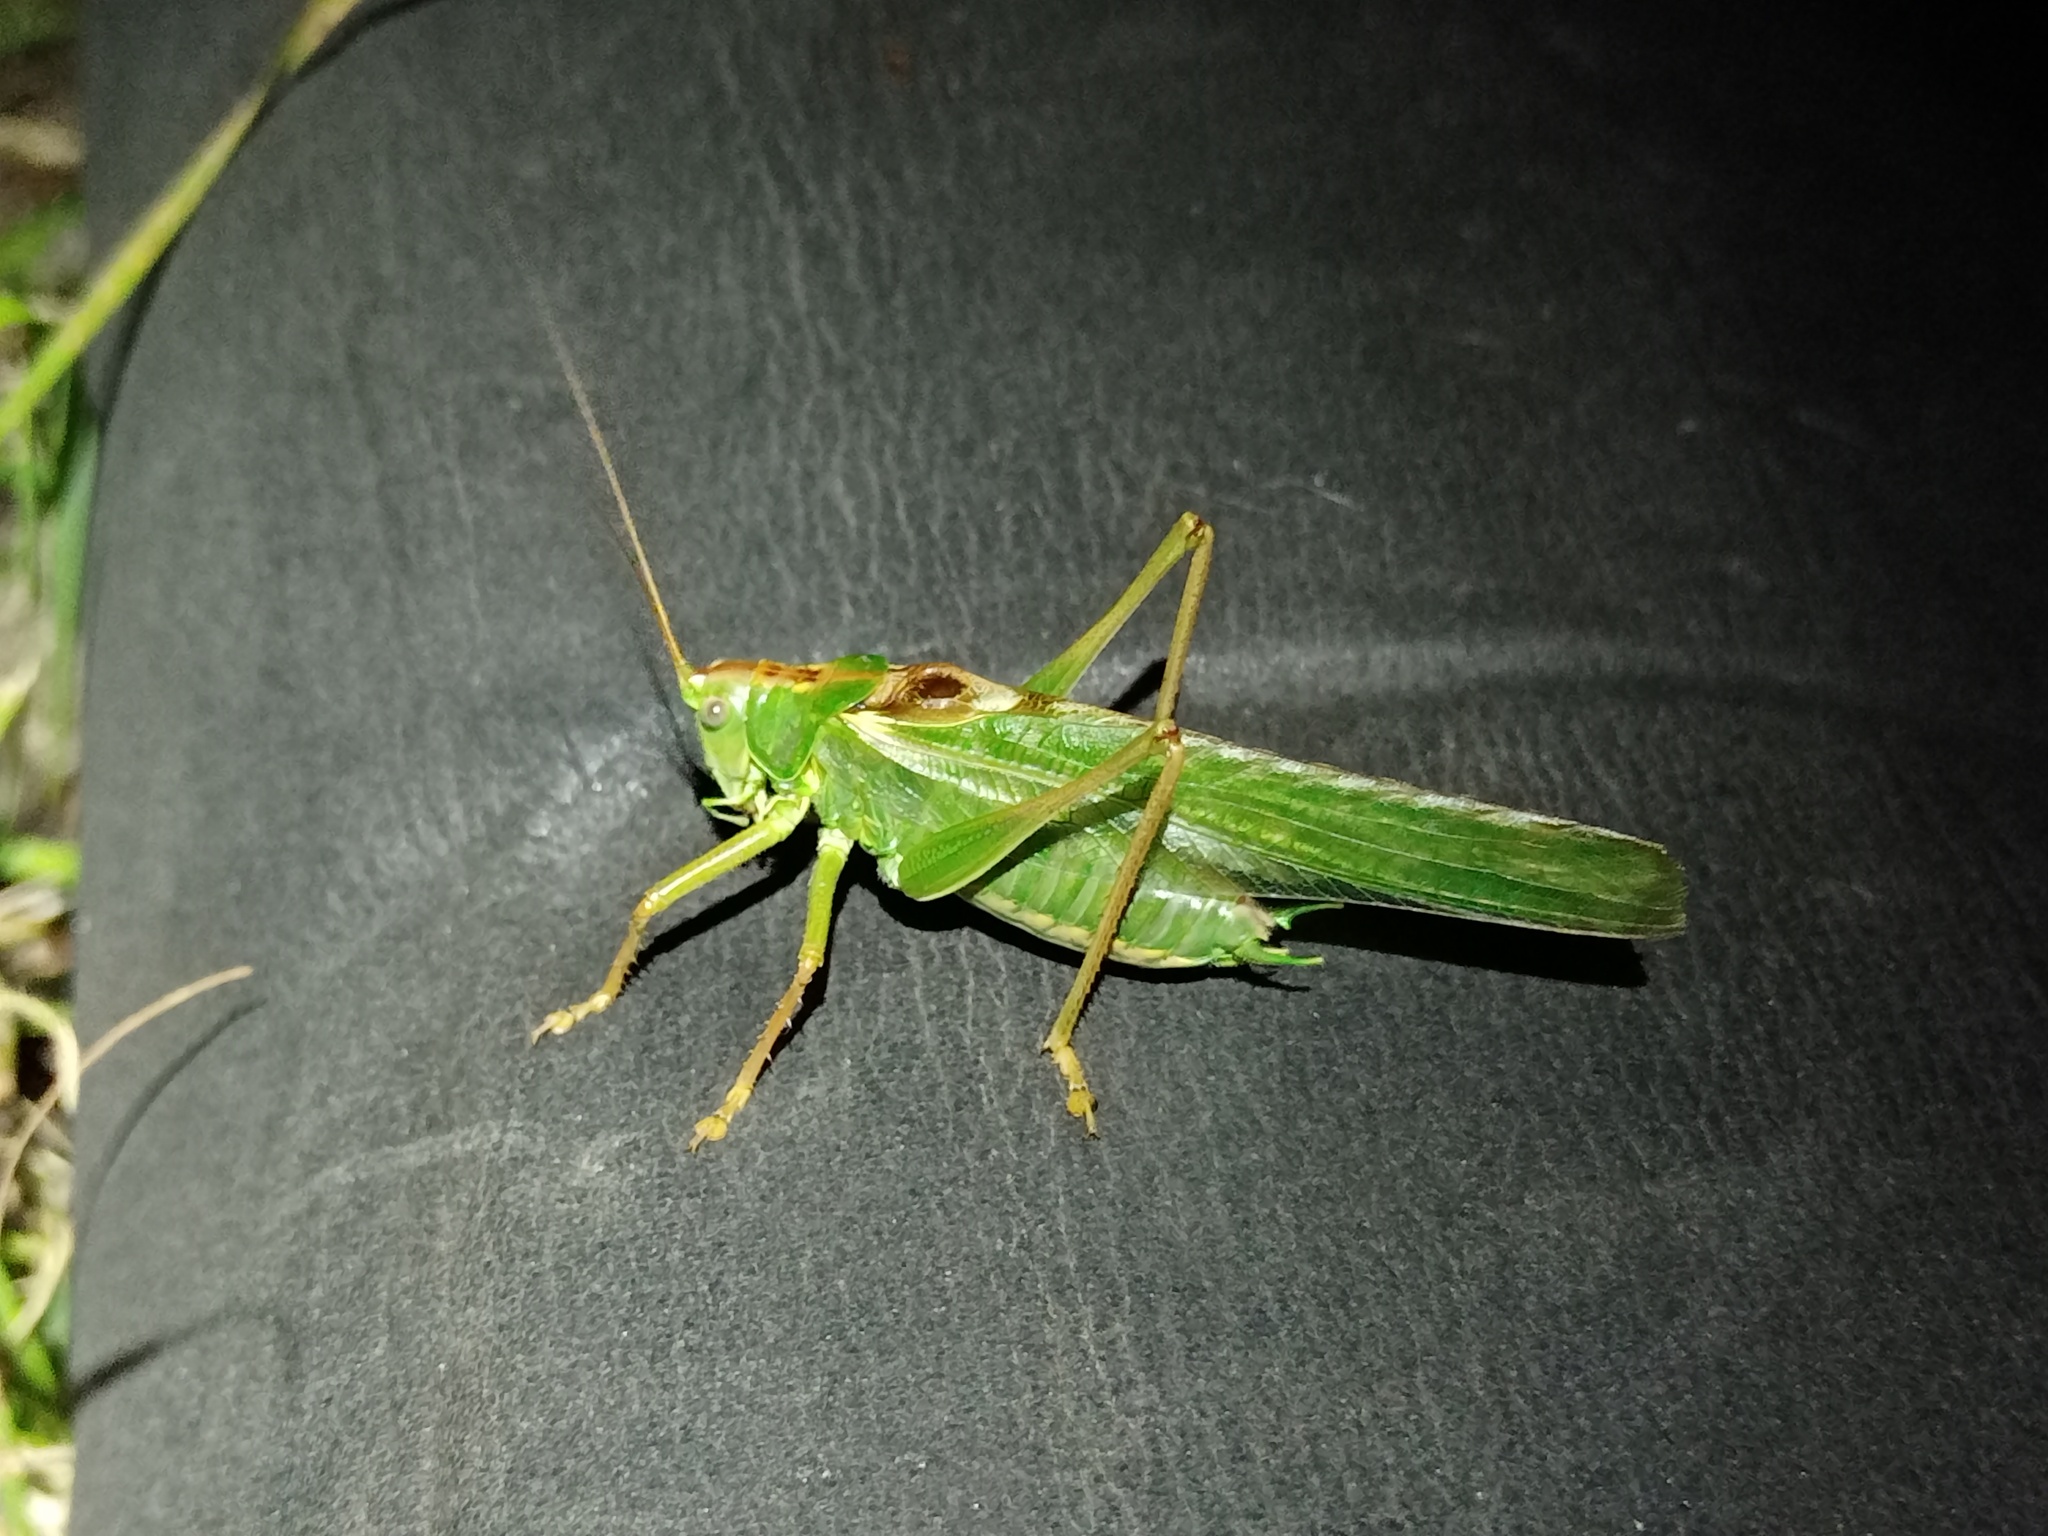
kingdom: Animalia
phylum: Arthropoda
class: Insecta
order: Orthoptera
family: Tettigoniidae
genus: Tettigonia
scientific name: Tettigonia viridissima
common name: Great green bush-cricket
